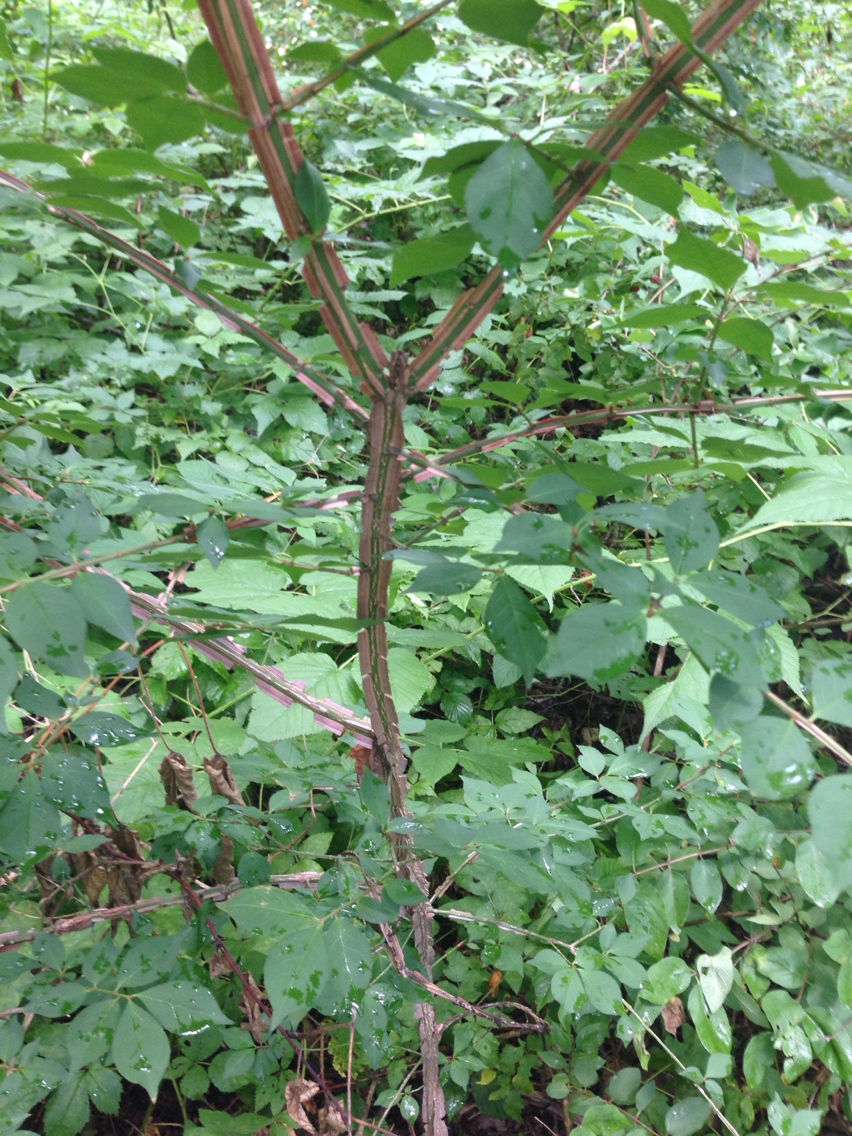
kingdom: Plantae
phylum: Tracheophyta
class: Magnoliopsida
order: Celastrales
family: Celastraceae
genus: Euonymus
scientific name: Euonymus alatus
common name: Winged euonymus
